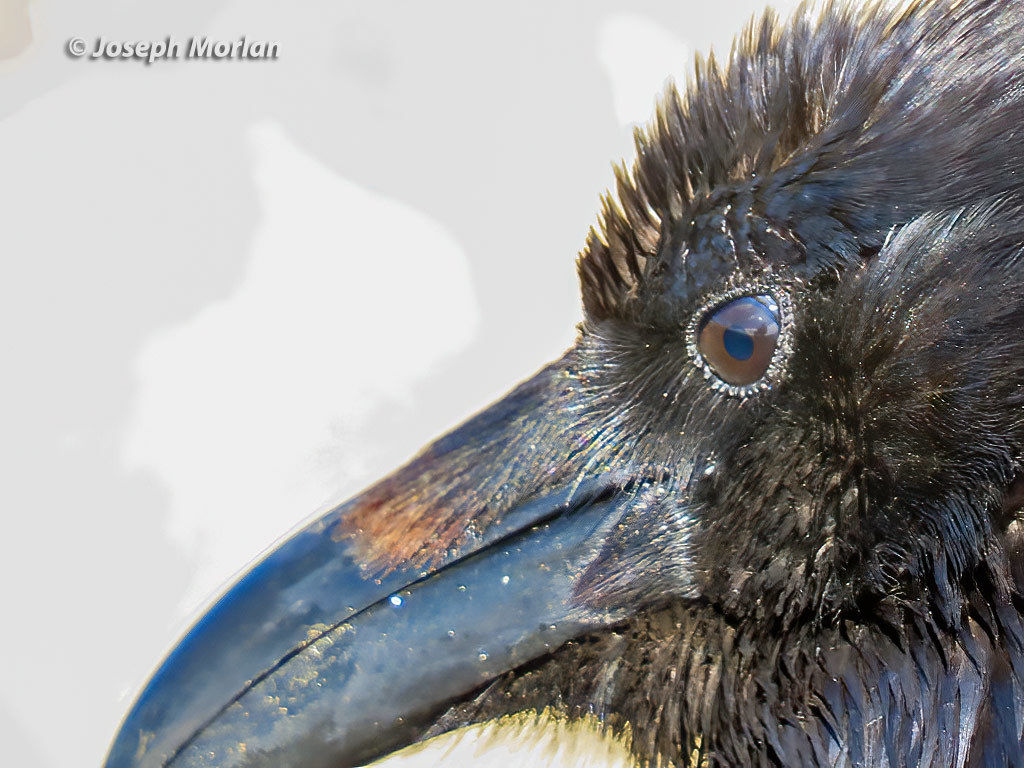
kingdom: Animalia
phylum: Chordata
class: Aves
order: Passeriformes
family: Corvidae
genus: Corvus
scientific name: Corvus corax
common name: Common raven
